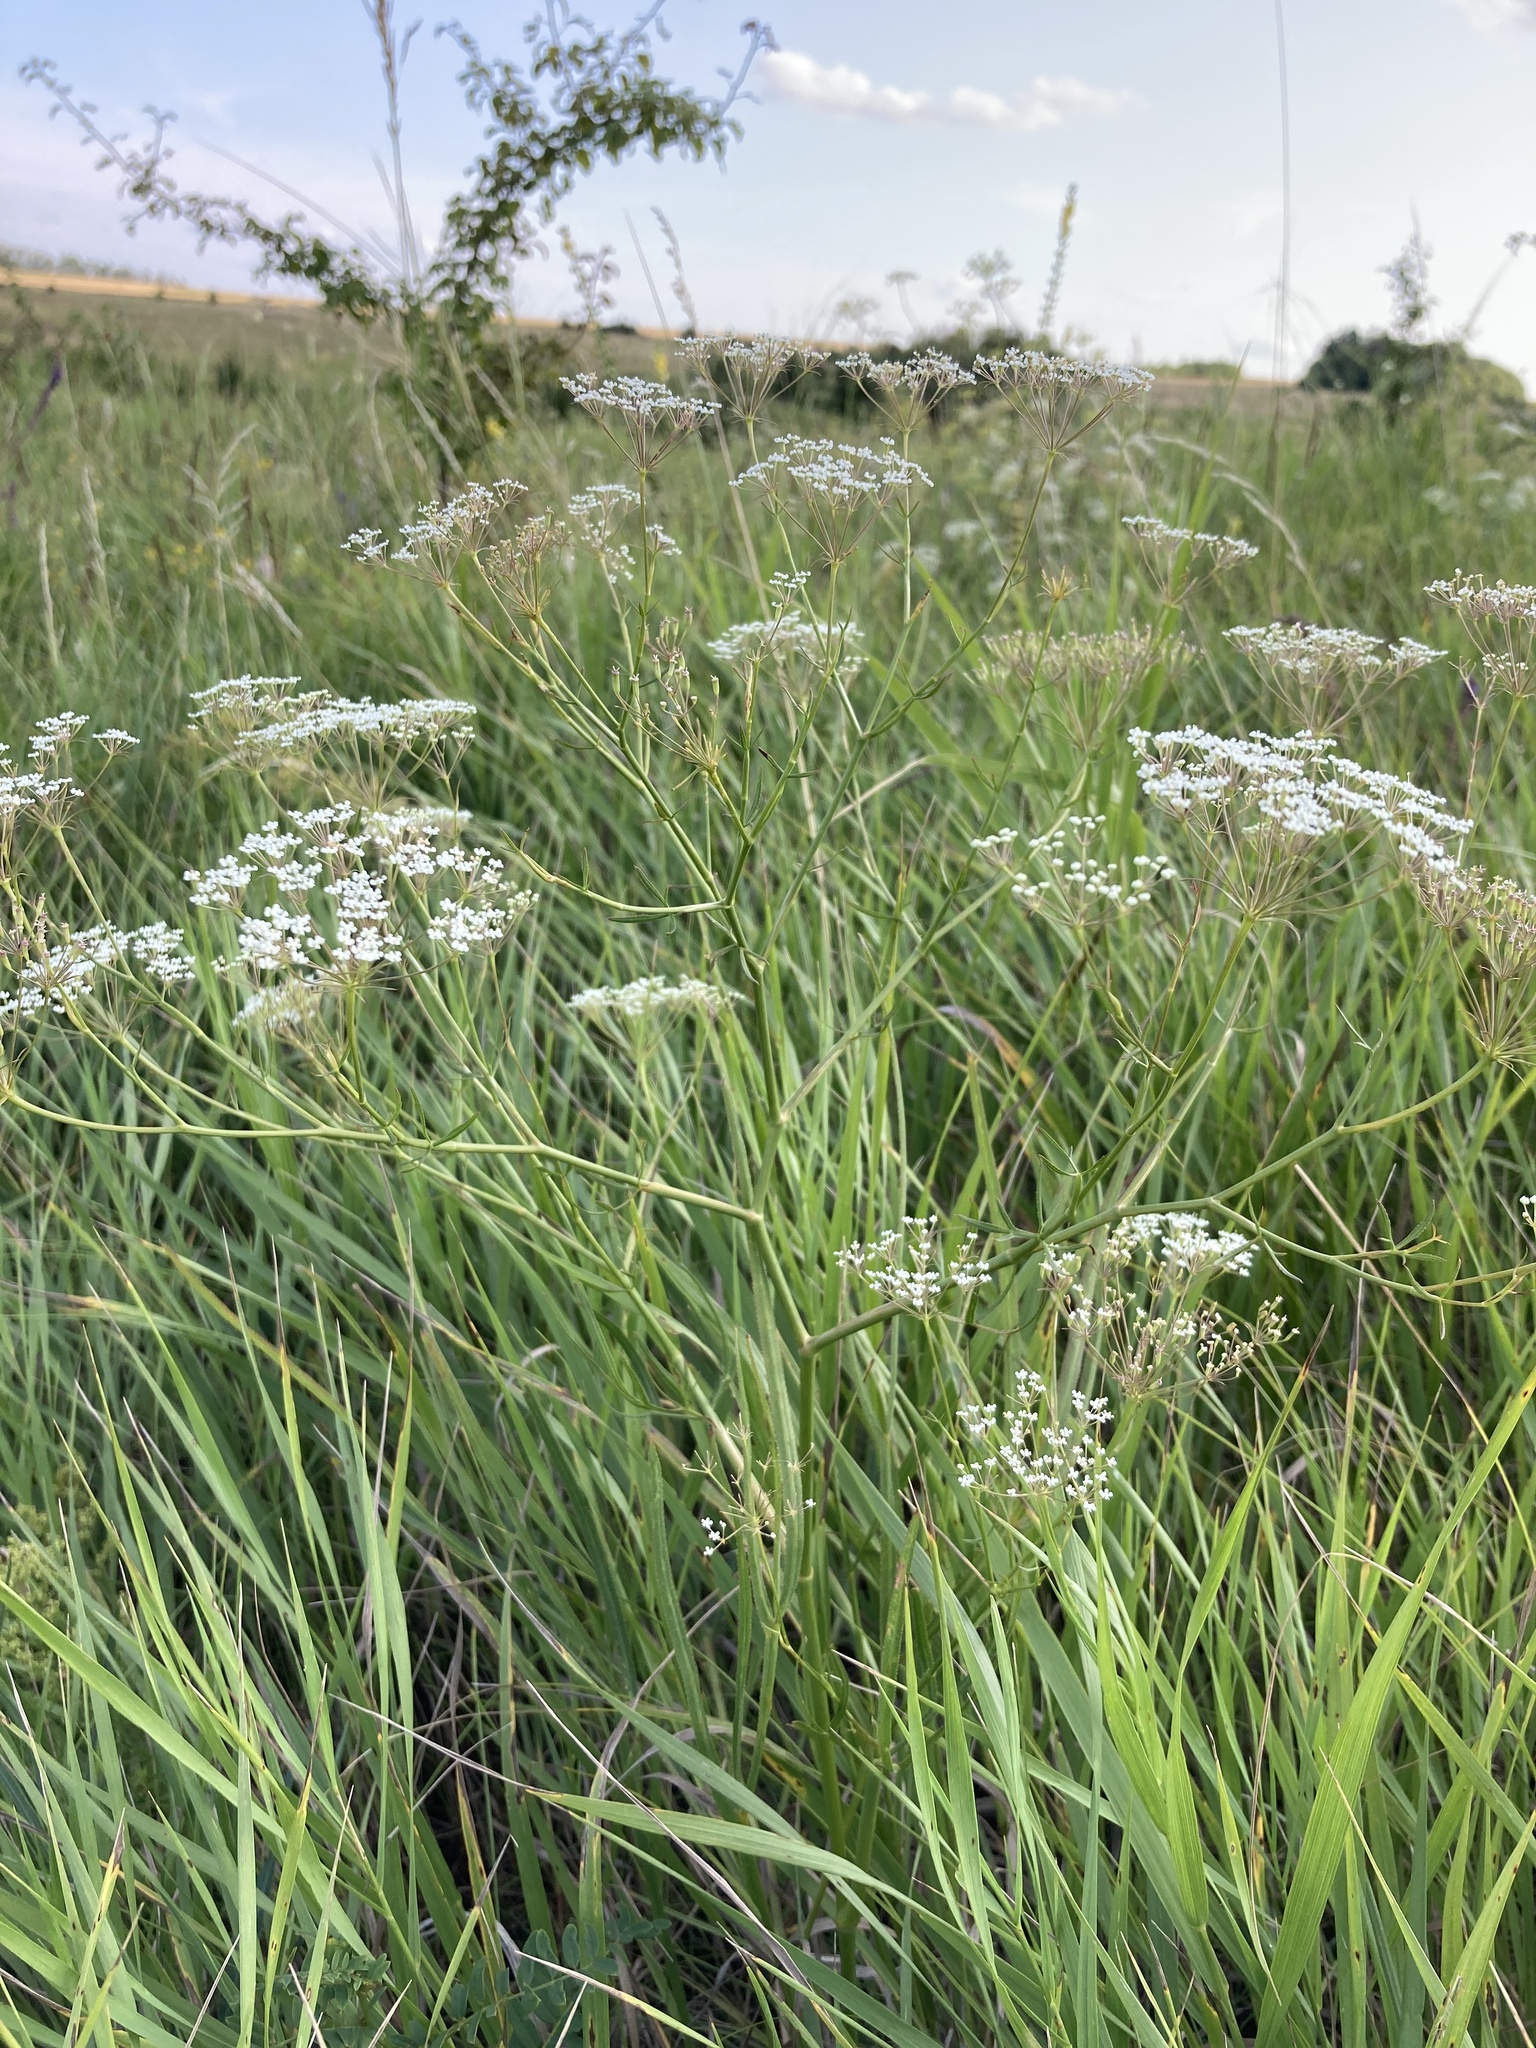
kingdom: Plantae
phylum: Tracheophyta
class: Magnoliopsida
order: Apiales
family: Apiaceae
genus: Falcaria
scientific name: Falcaria vulgaris
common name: Longleaf
